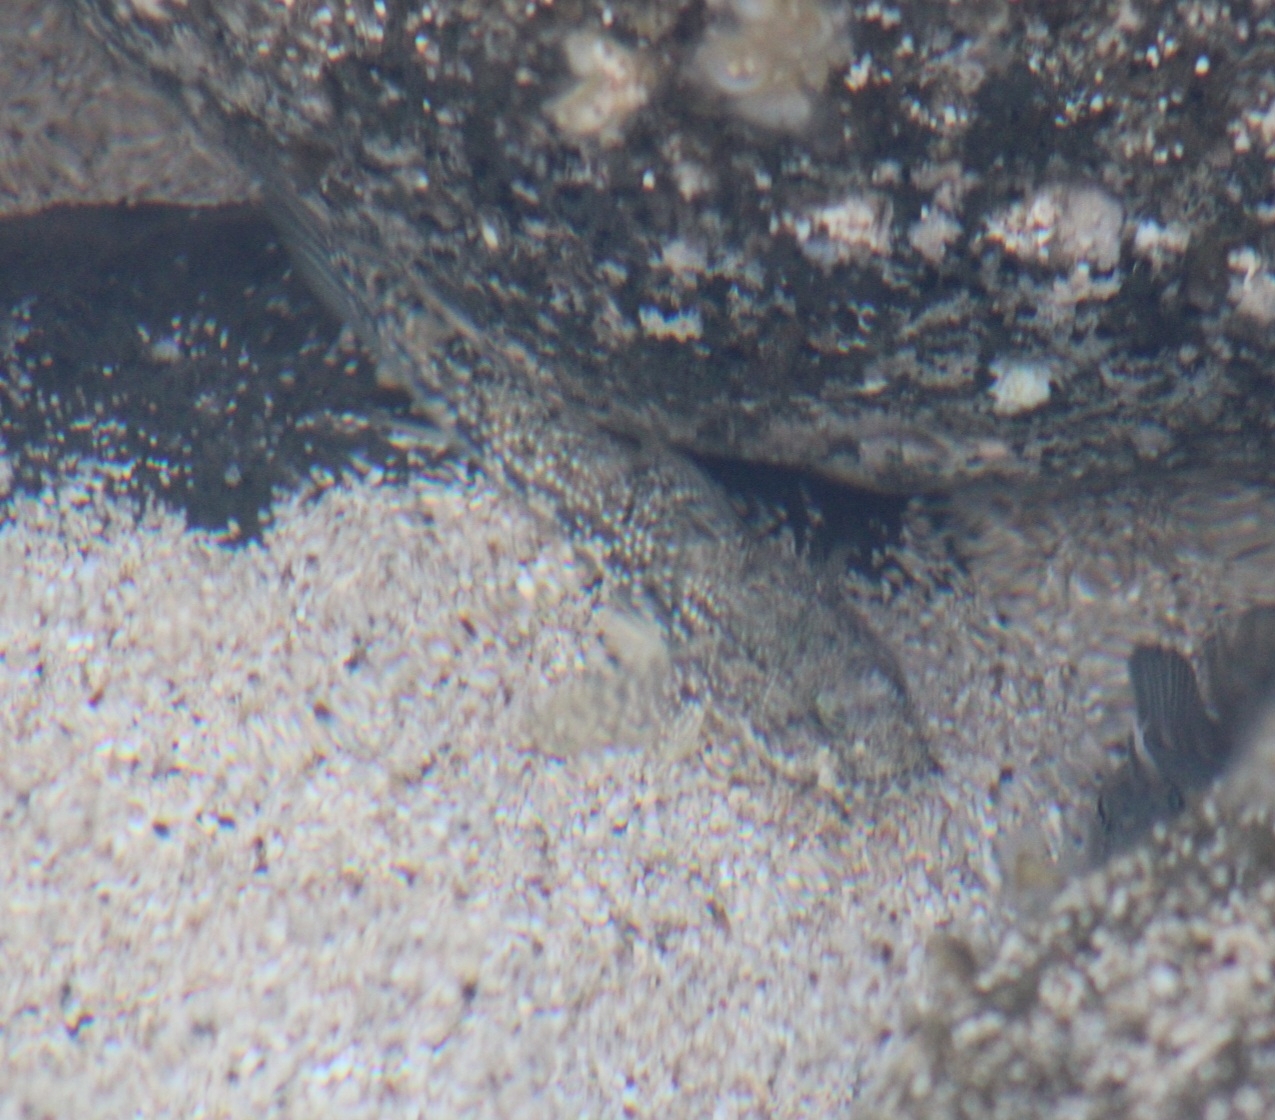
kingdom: Animalia
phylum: Chordata
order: Perciformes
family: Gobiidae
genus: Bathygobius
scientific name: Bathygobius coalitus
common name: Whitespotted goby
